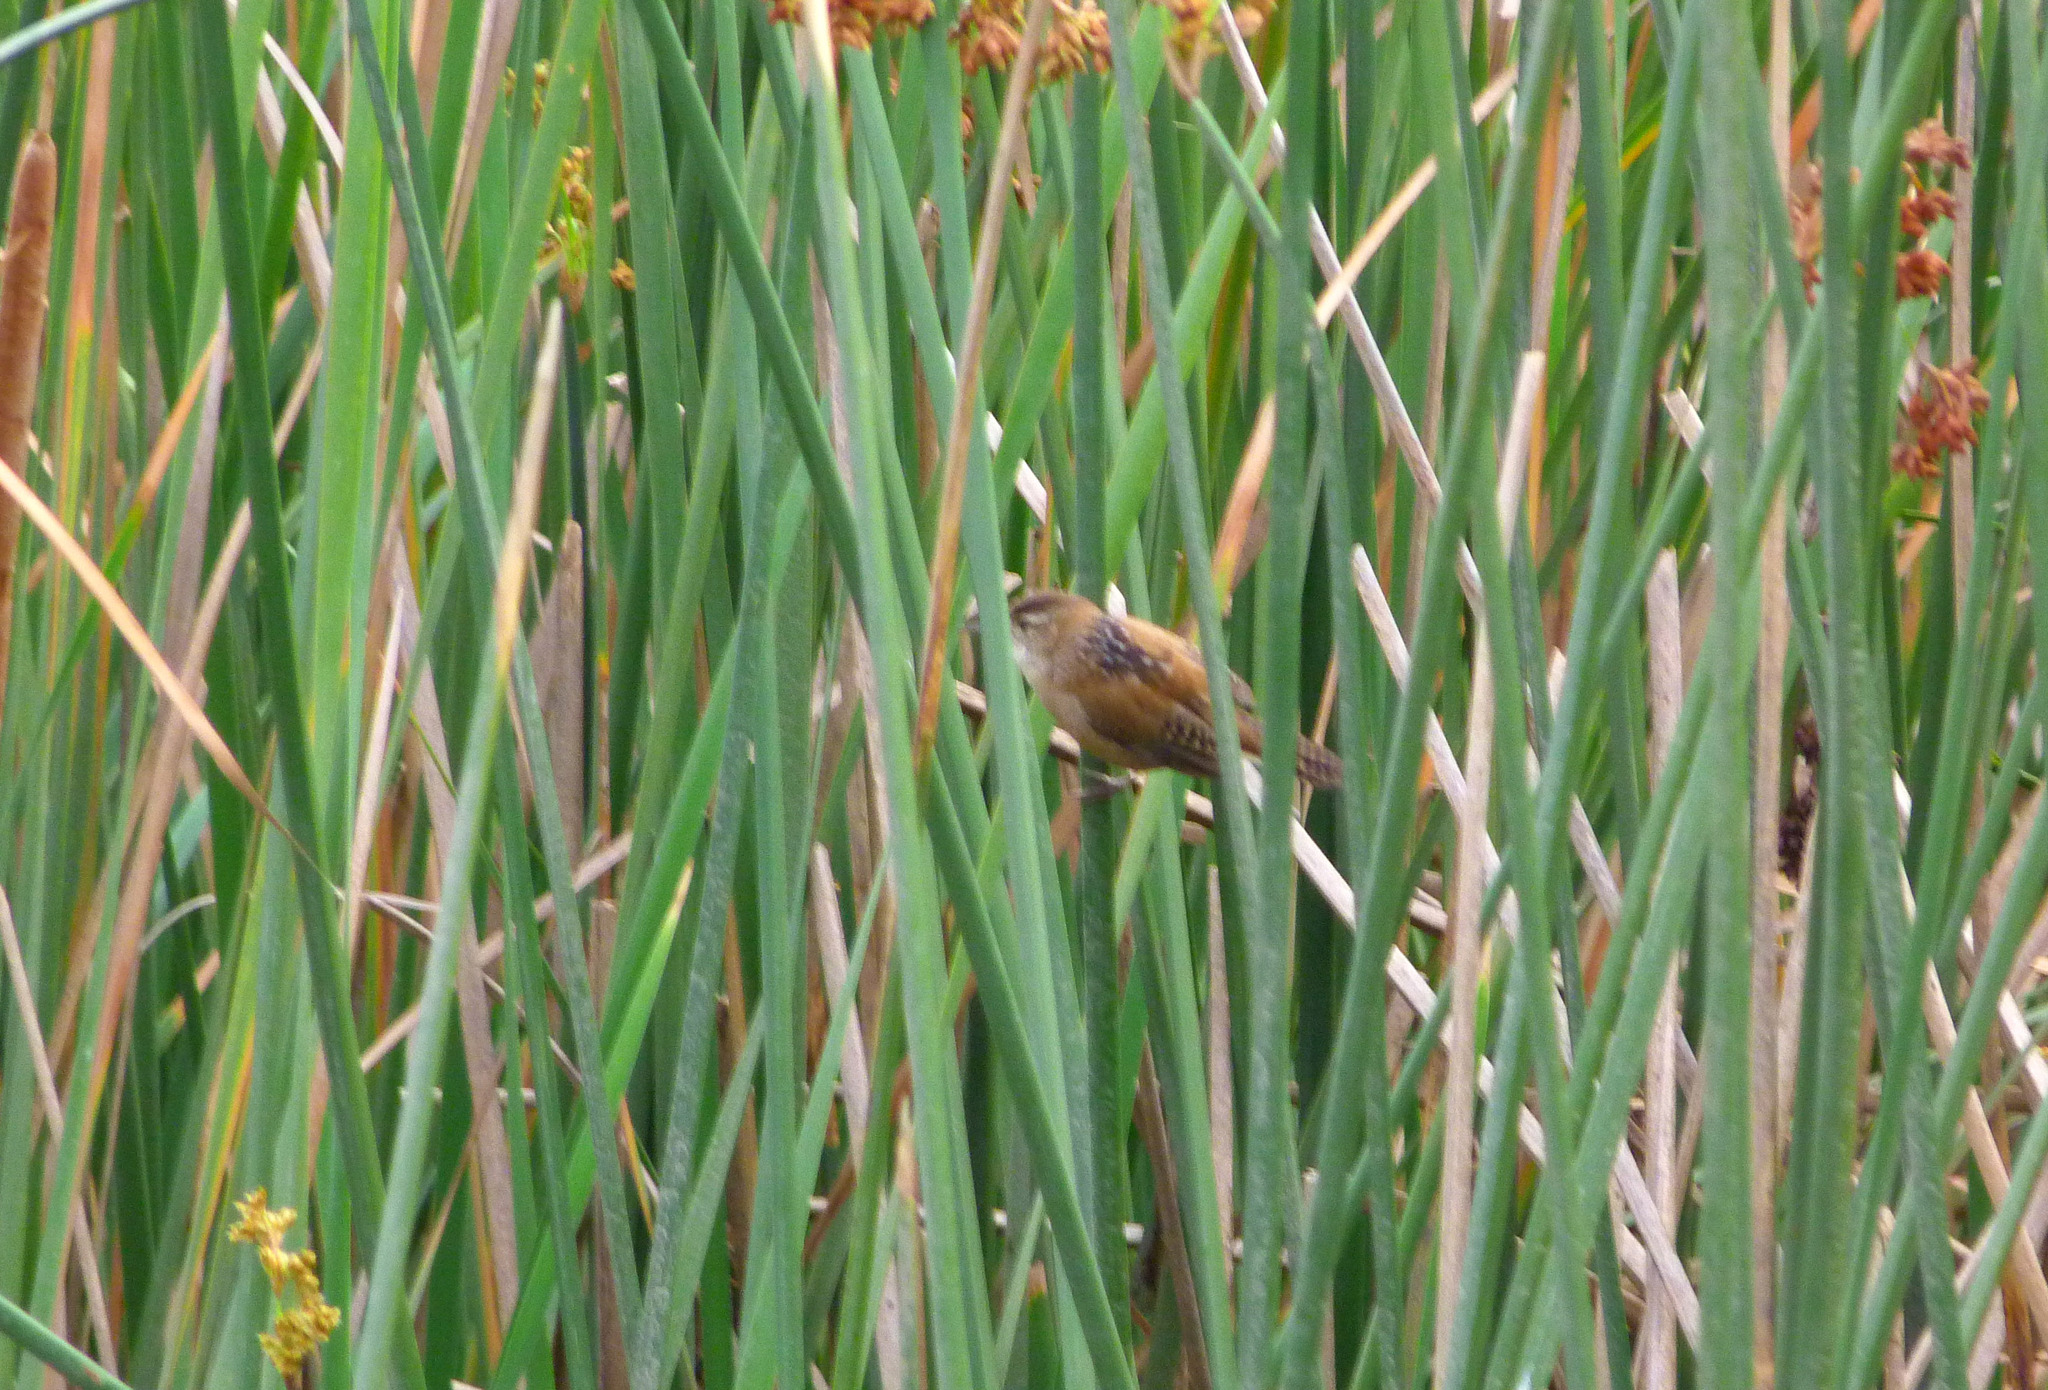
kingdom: Animalia
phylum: Chordata
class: Aves
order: Passeriformes
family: Troglodytidae
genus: Cistothorus
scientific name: Cistothorus palustris
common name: Marsh wren
